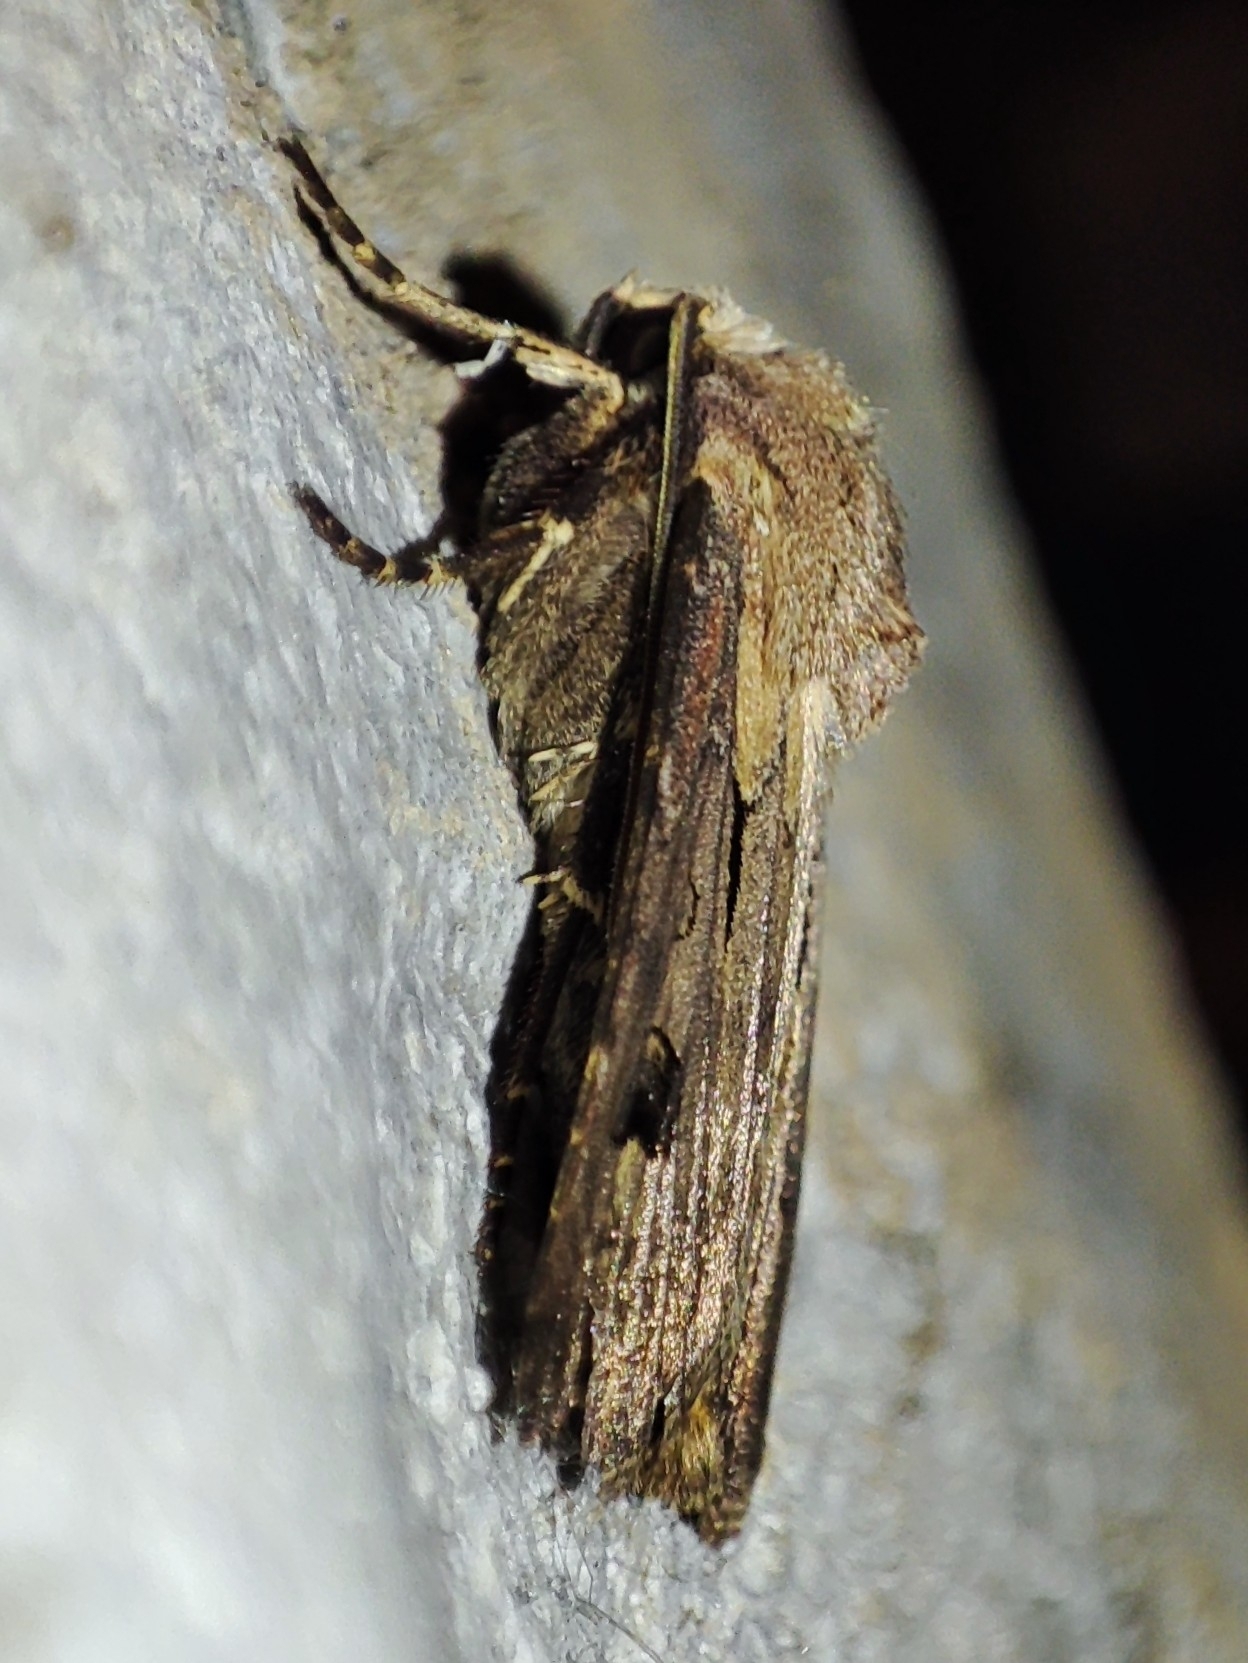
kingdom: Animalia
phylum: Arthropoda
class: Insecta
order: Lepidoptera
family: Noctuidae
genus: Agrotis
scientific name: Agrotis exclamationis
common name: Heart and dart
